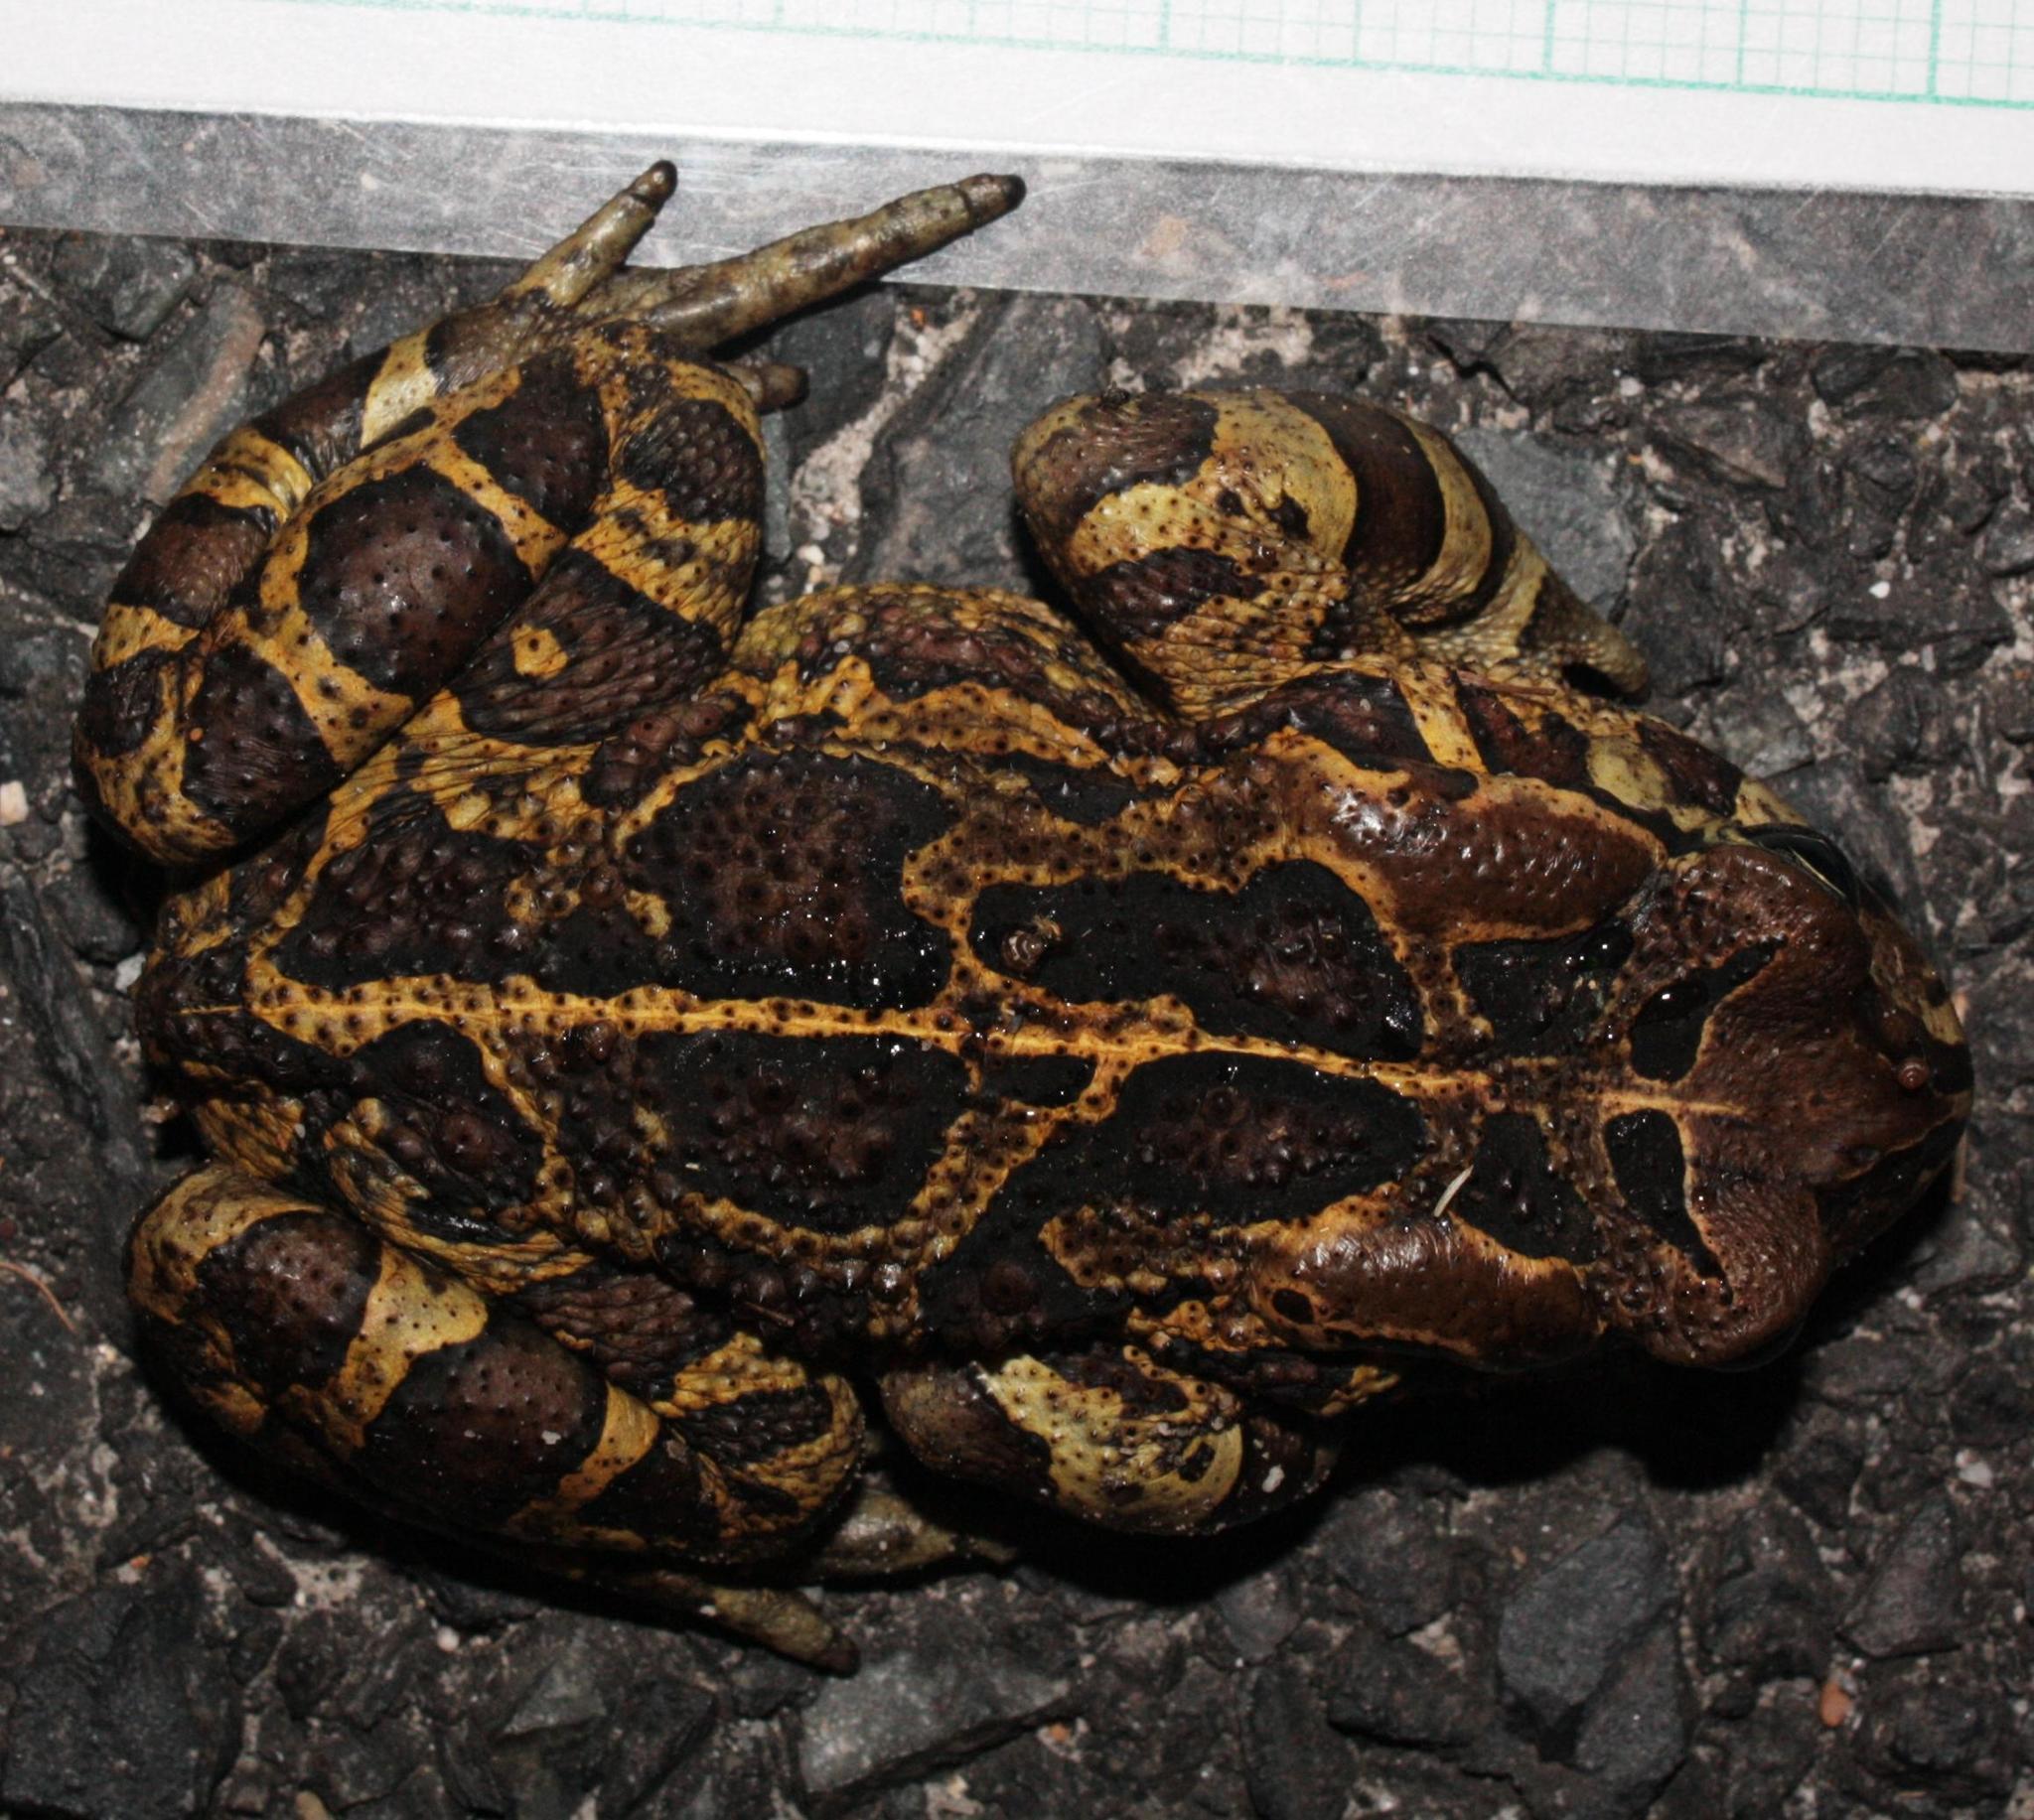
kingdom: Animalia
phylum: Chordata
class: Amphibia
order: Anura
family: Bufonidae
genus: Sclerophrys
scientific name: Sclerophrys pantherina
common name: Panther toad
